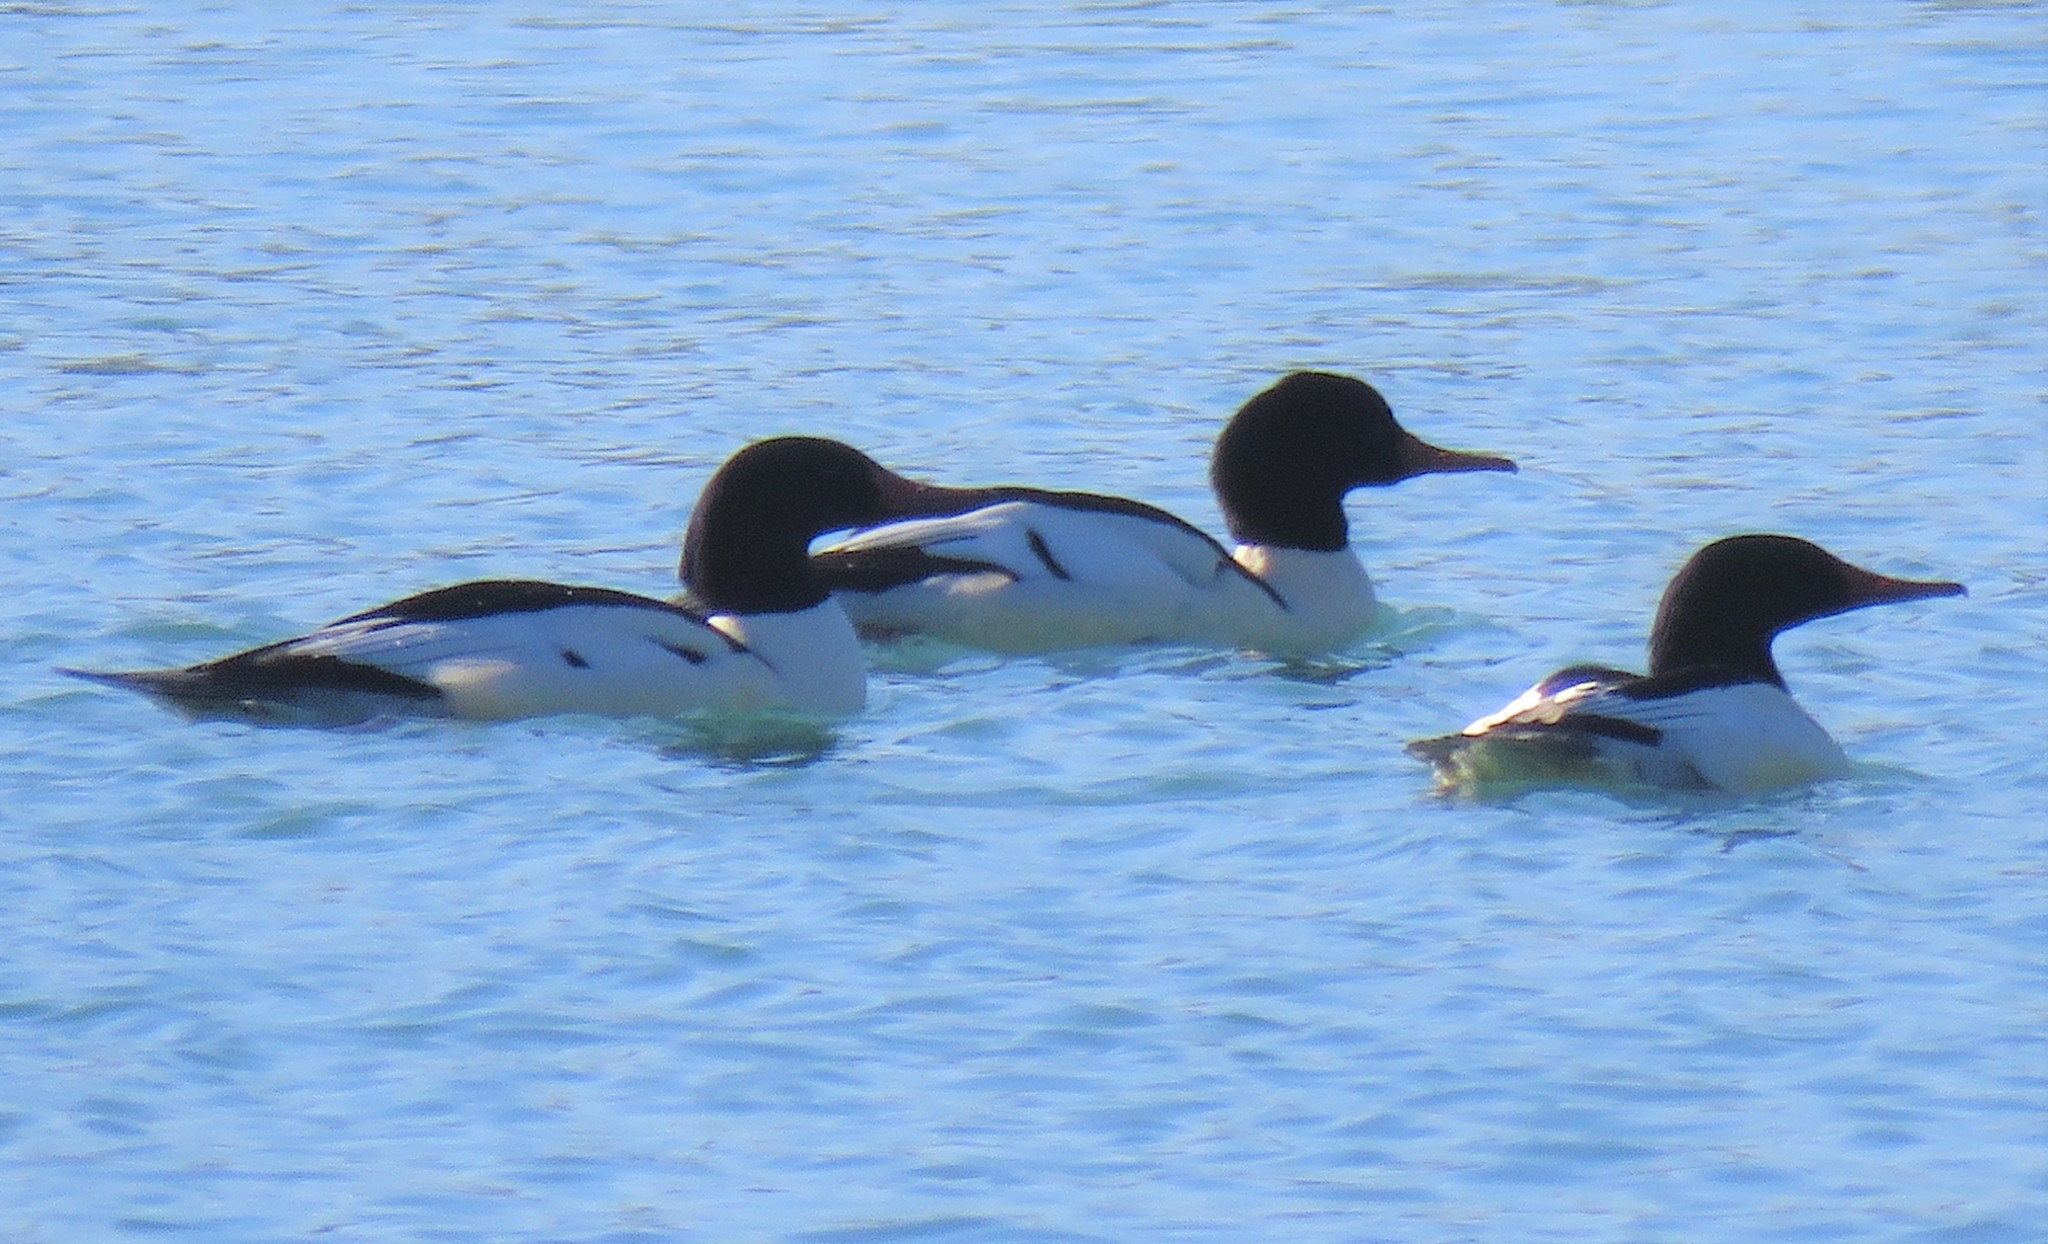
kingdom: Animalia
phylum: Chordata
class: Aves
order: Anseriformes
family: Anatidae
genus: Mergus
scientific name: Mergus merganser
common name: Common merganser
